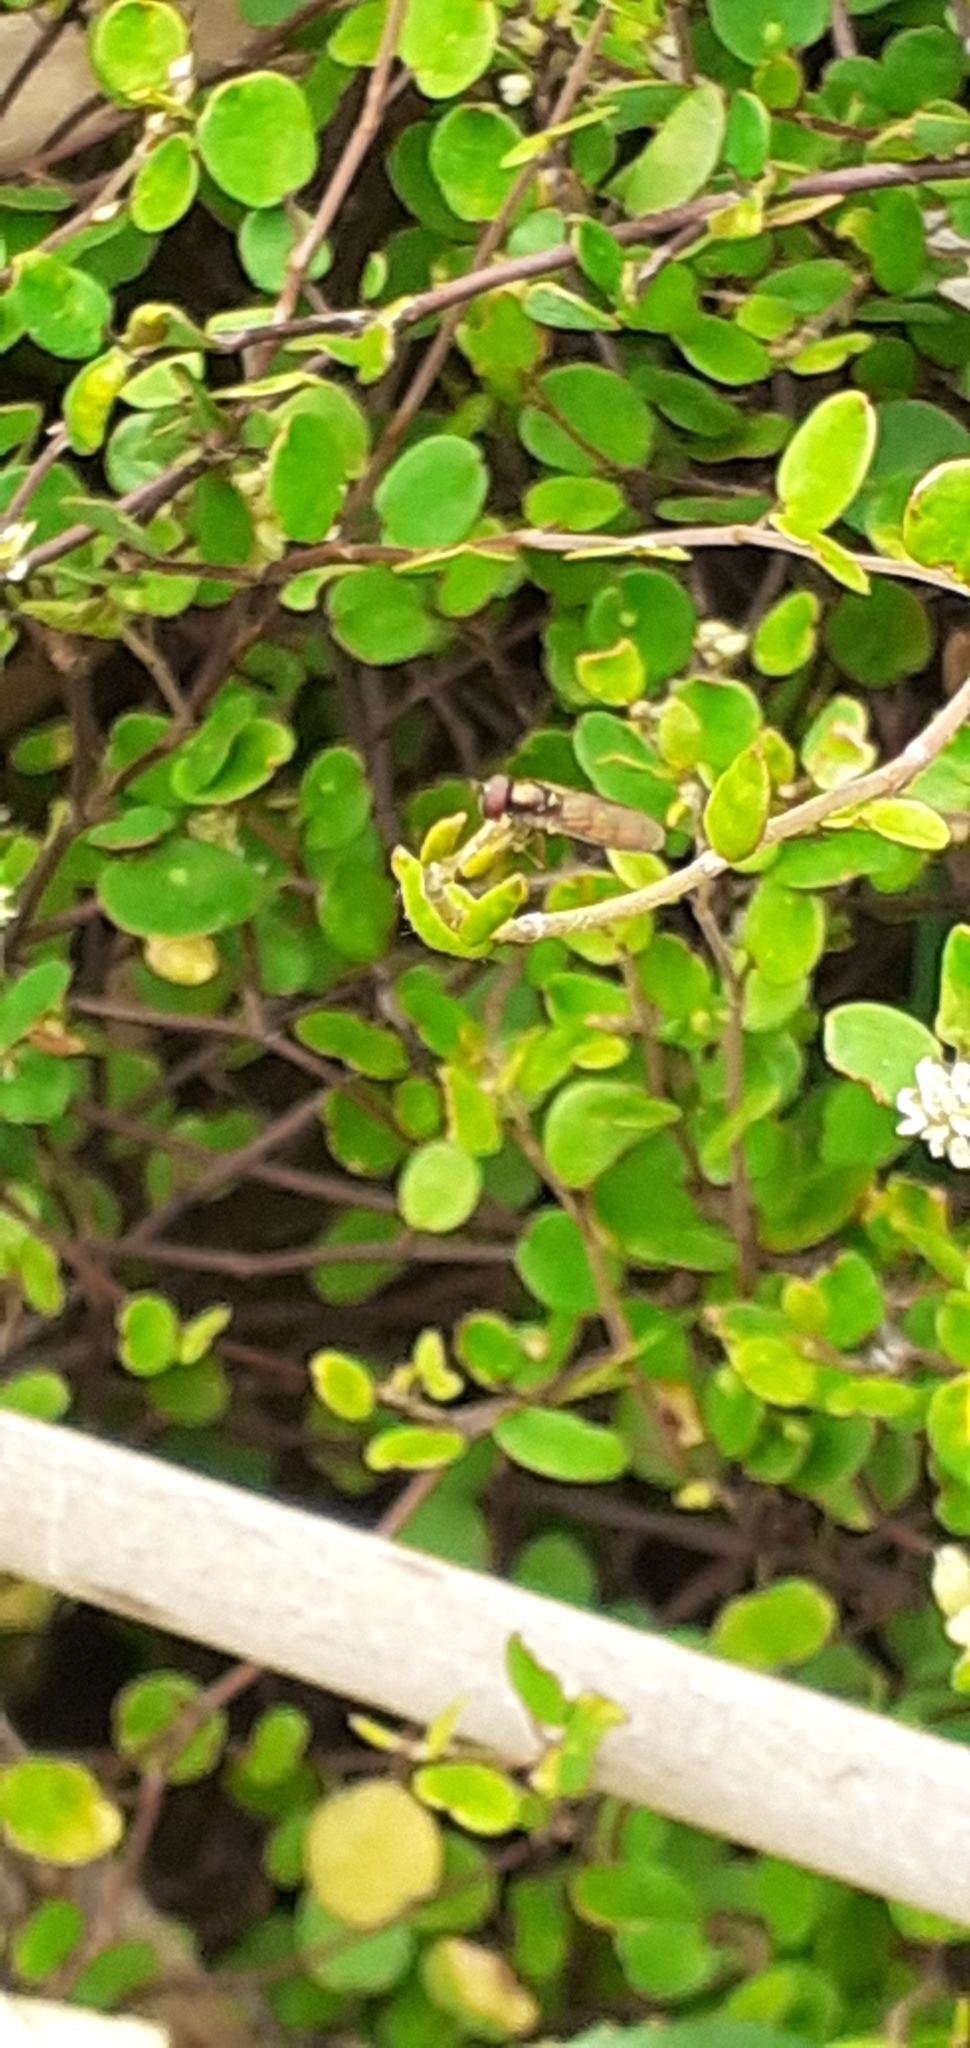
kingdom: Animalia
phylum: Arthropoda
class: Insecta
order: Diptera
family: Syrphidae
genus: Melanostoma
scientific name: Melanostoma fasciatum
